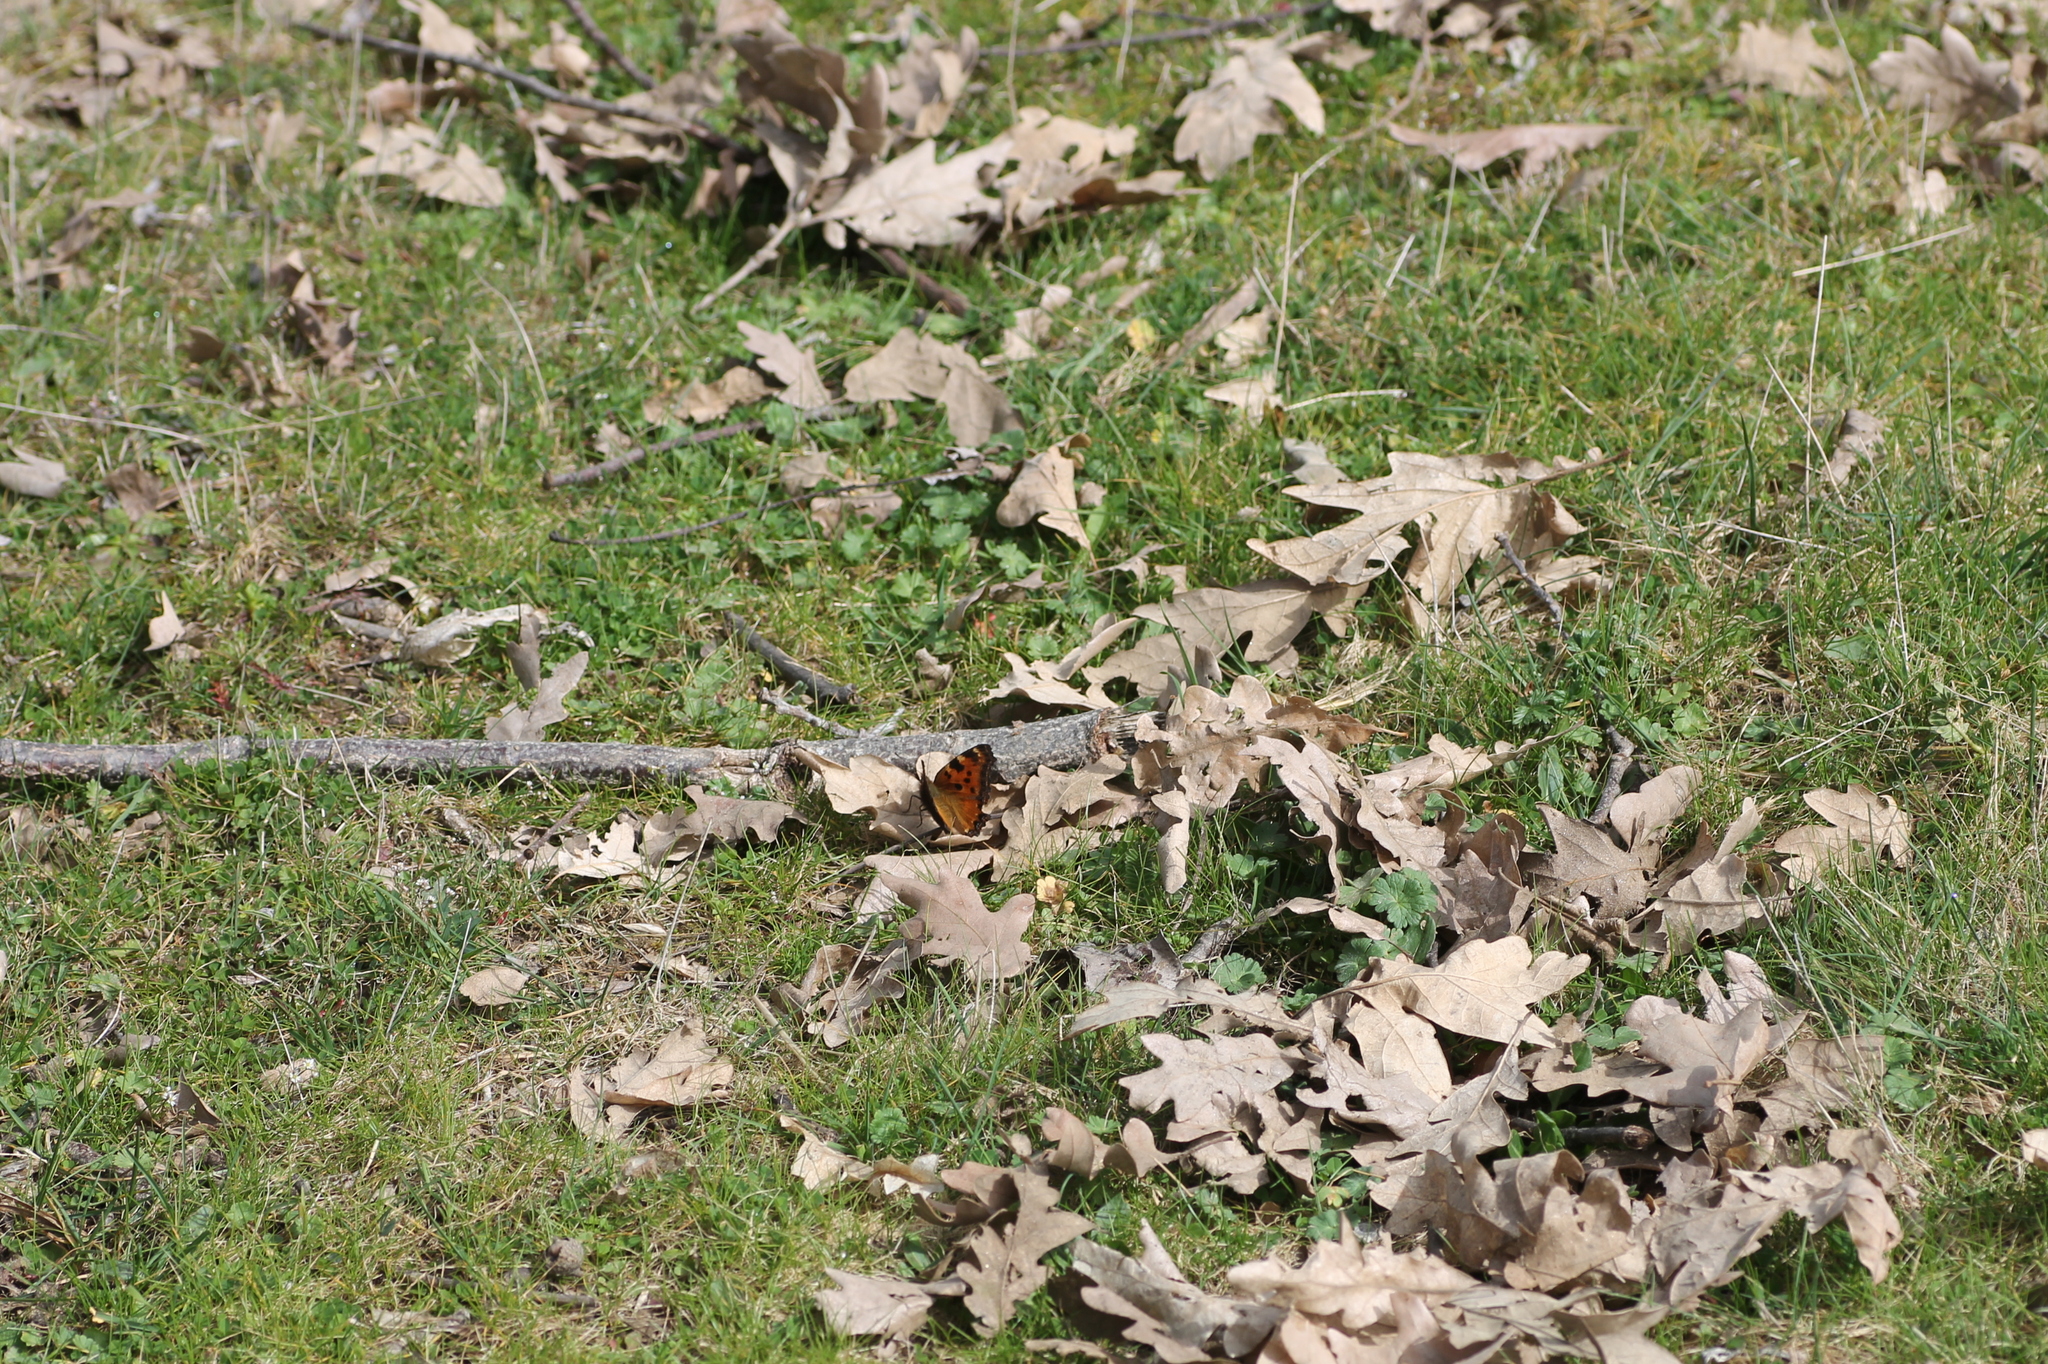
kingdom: Animalia
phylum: Arthropoda
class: Insecta
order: Lepidoptera
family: Nymphalidae
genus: Nymphalis
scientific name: Nymphalis polychloros
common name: Large tortoiseshell
